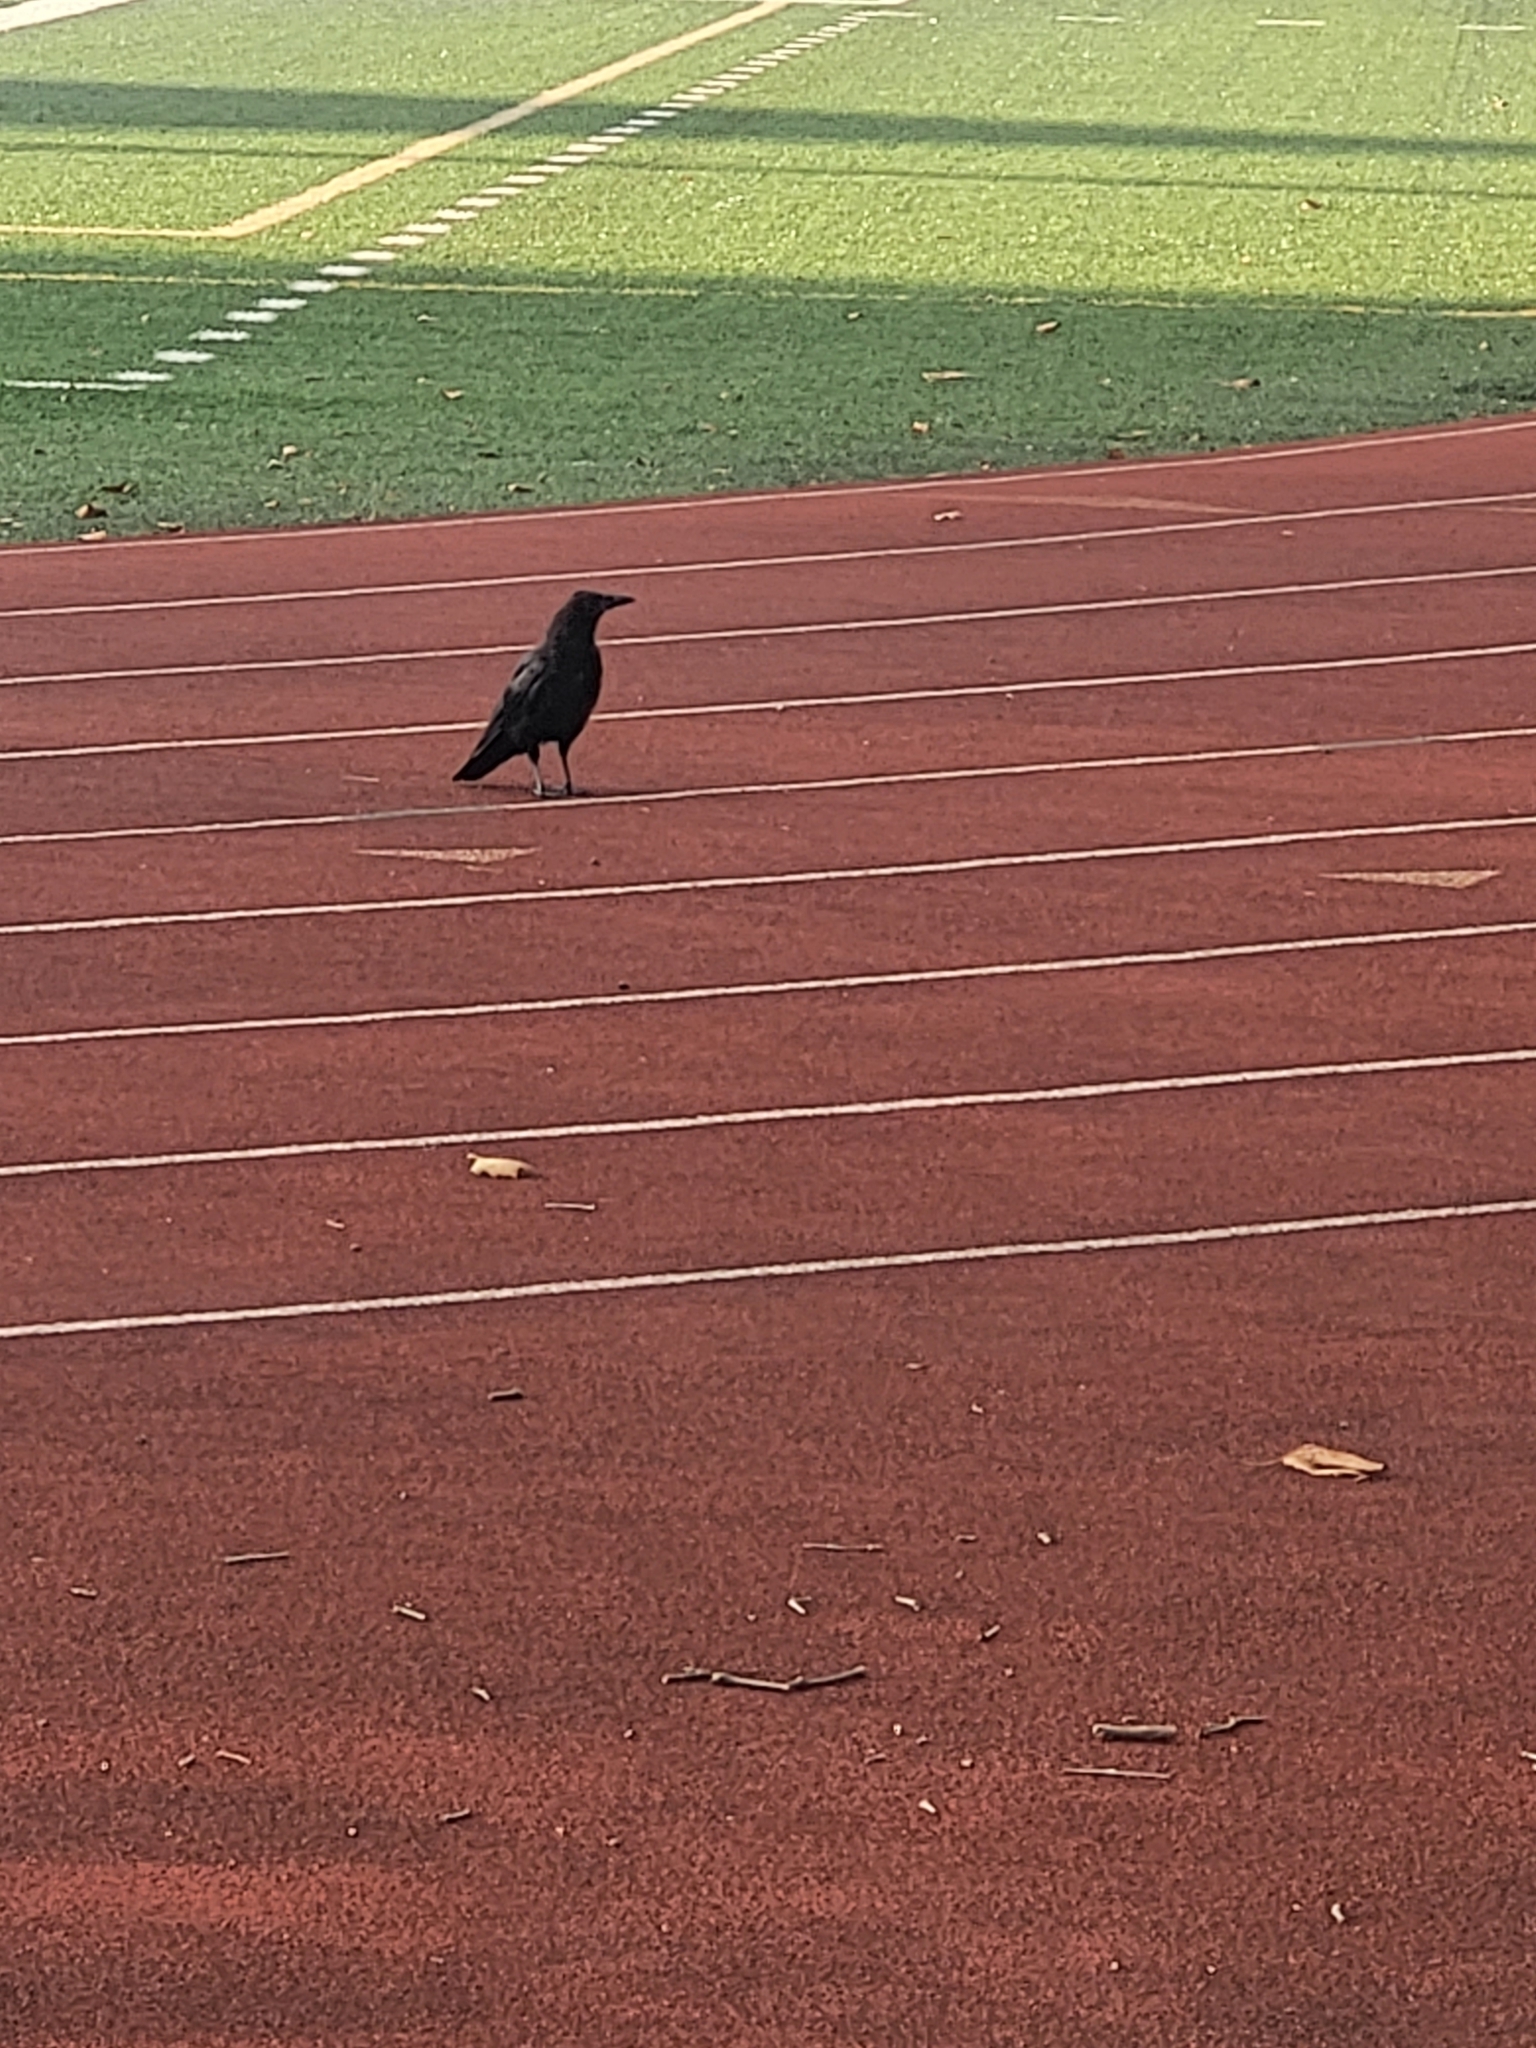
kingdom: Animalia
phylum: Chordata
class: Aves
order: Passeriformes
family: Corvidae
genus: Corvus
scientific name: Corvus brachyrhynchos
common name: American crow
